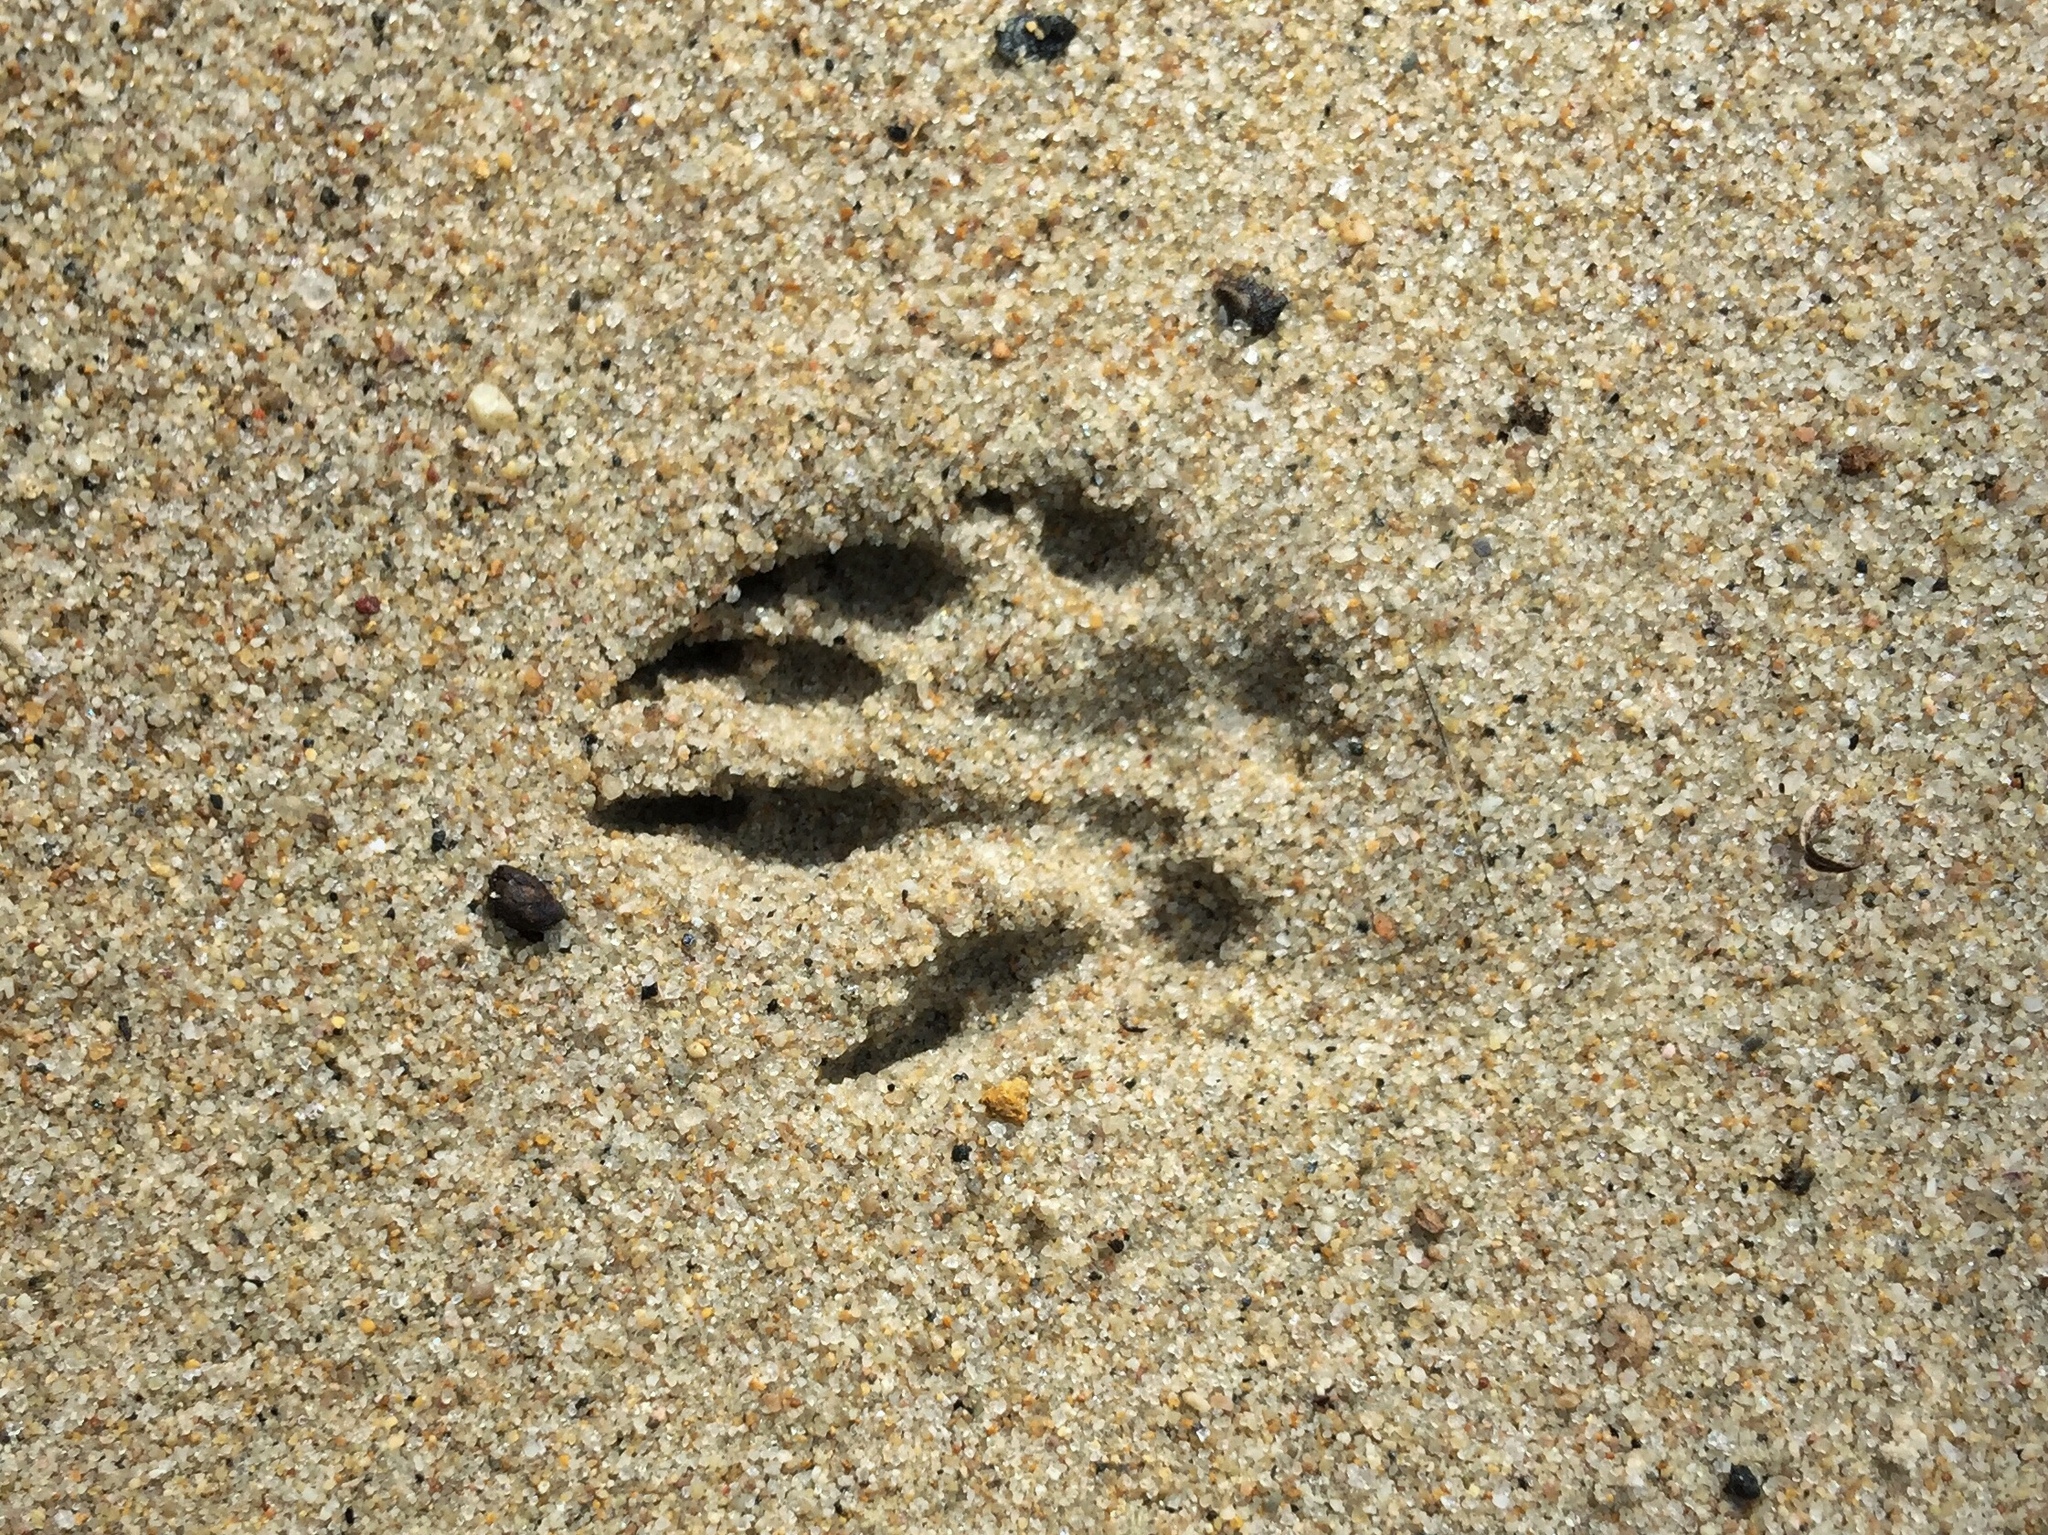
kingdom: Animalia
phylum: Chordata
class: Mammalia
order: Rodentia
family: Sciuridae
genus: Otospermophilus
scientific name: Otospermophilus beecheyi
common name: California ground squirrel
